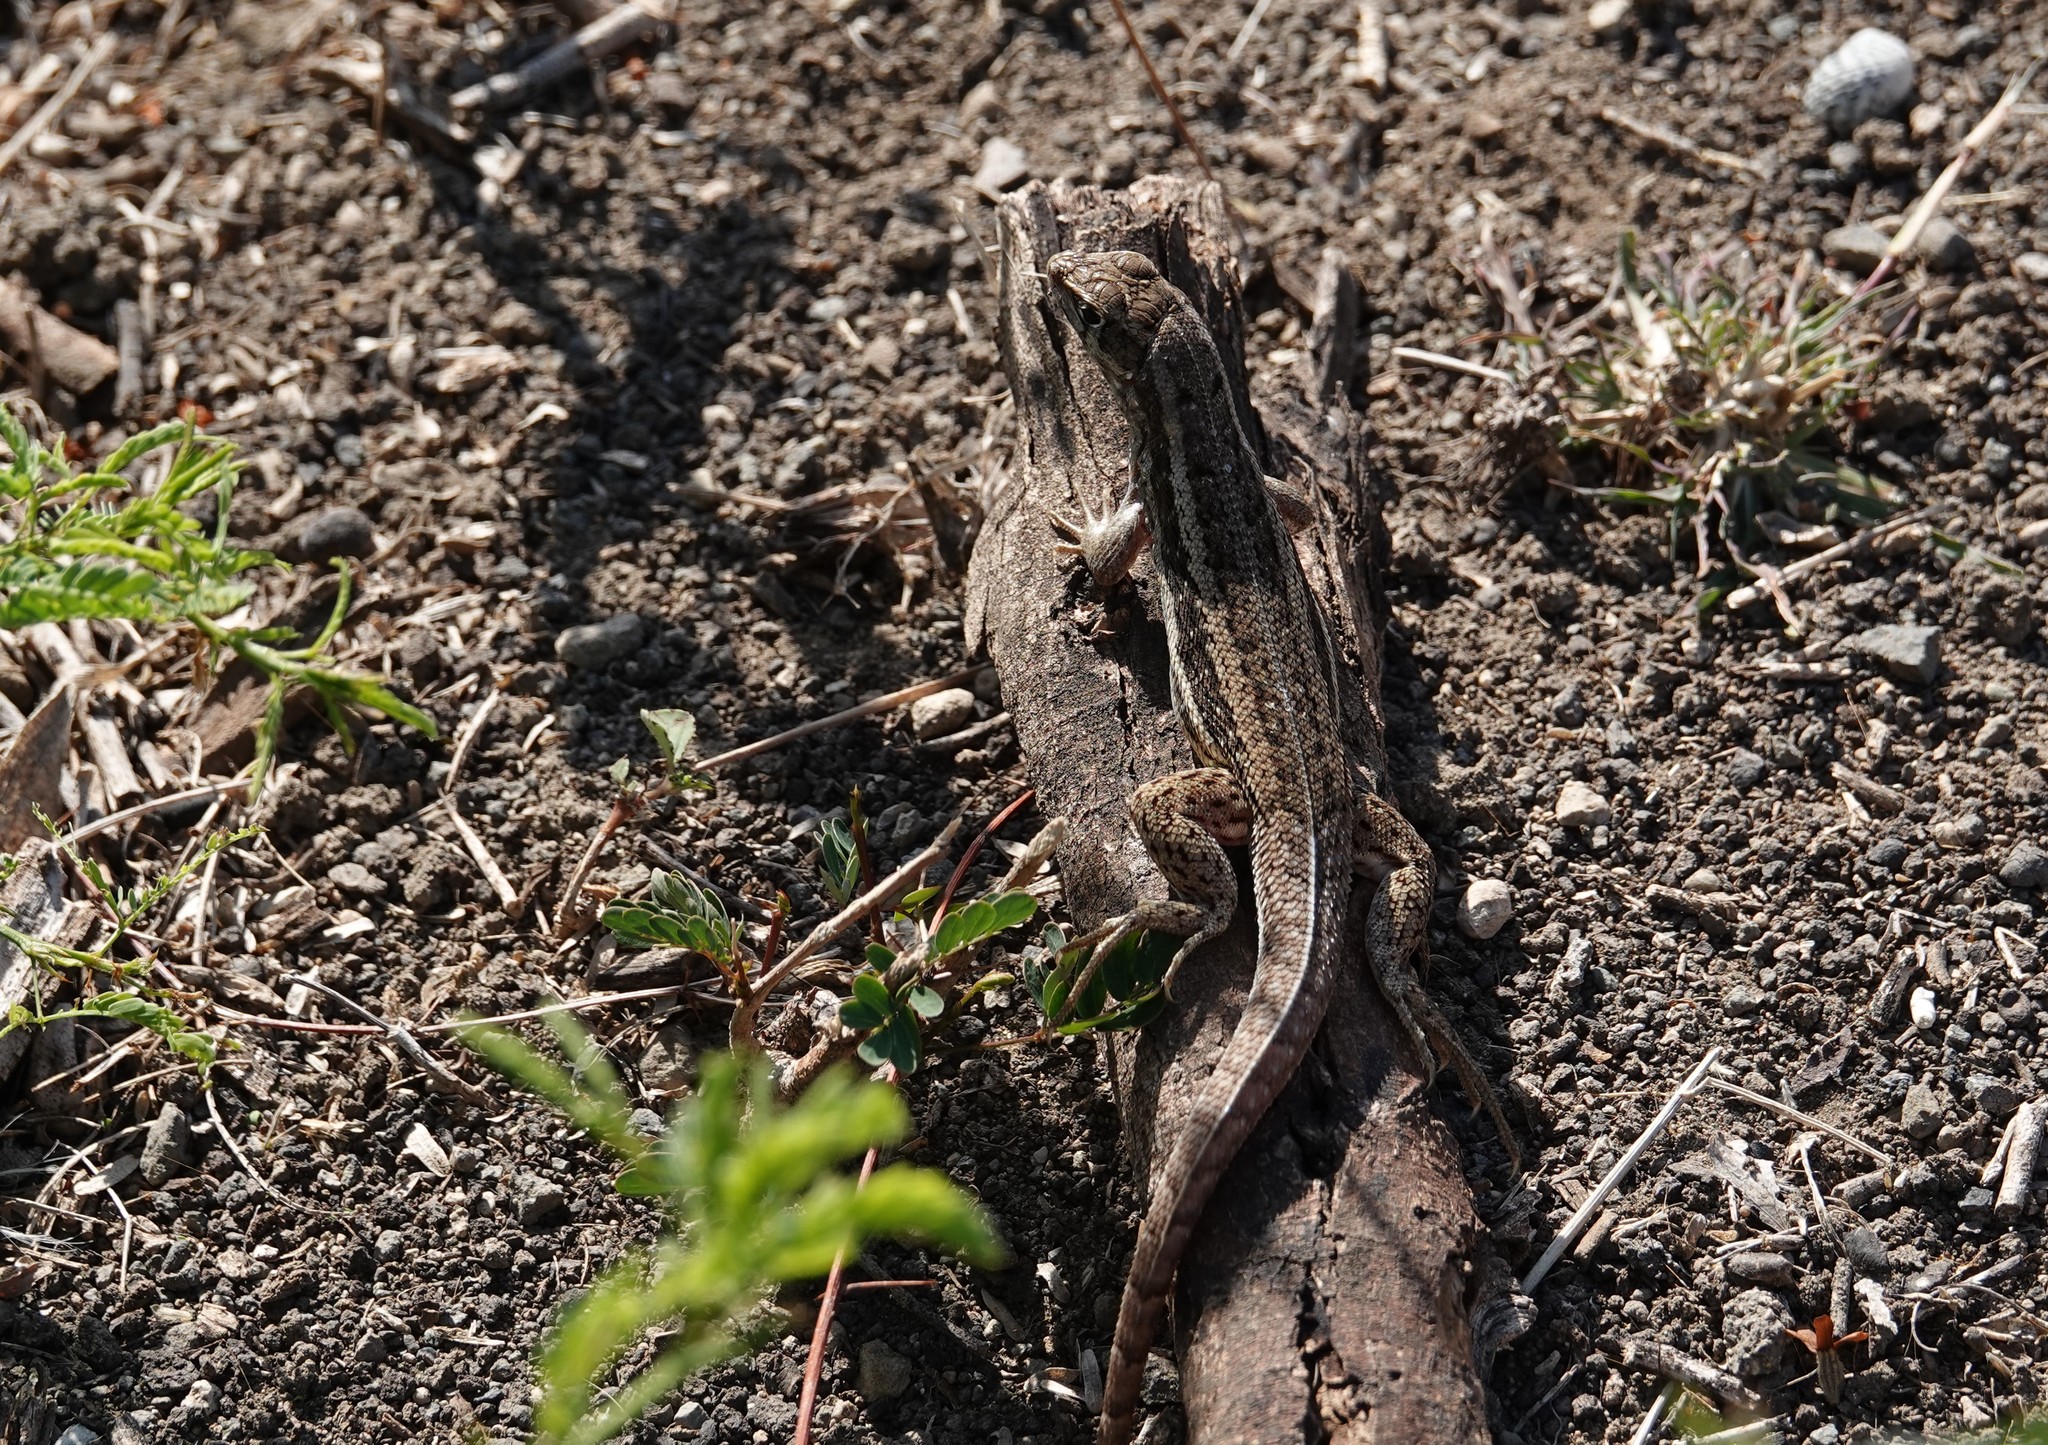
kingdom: Animalia
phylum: Chordata
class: Squamata
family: Leiocephalidae
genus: Leiocephalus
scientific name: Leiocephalus raviceps
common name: Mountain curlytail lizard
